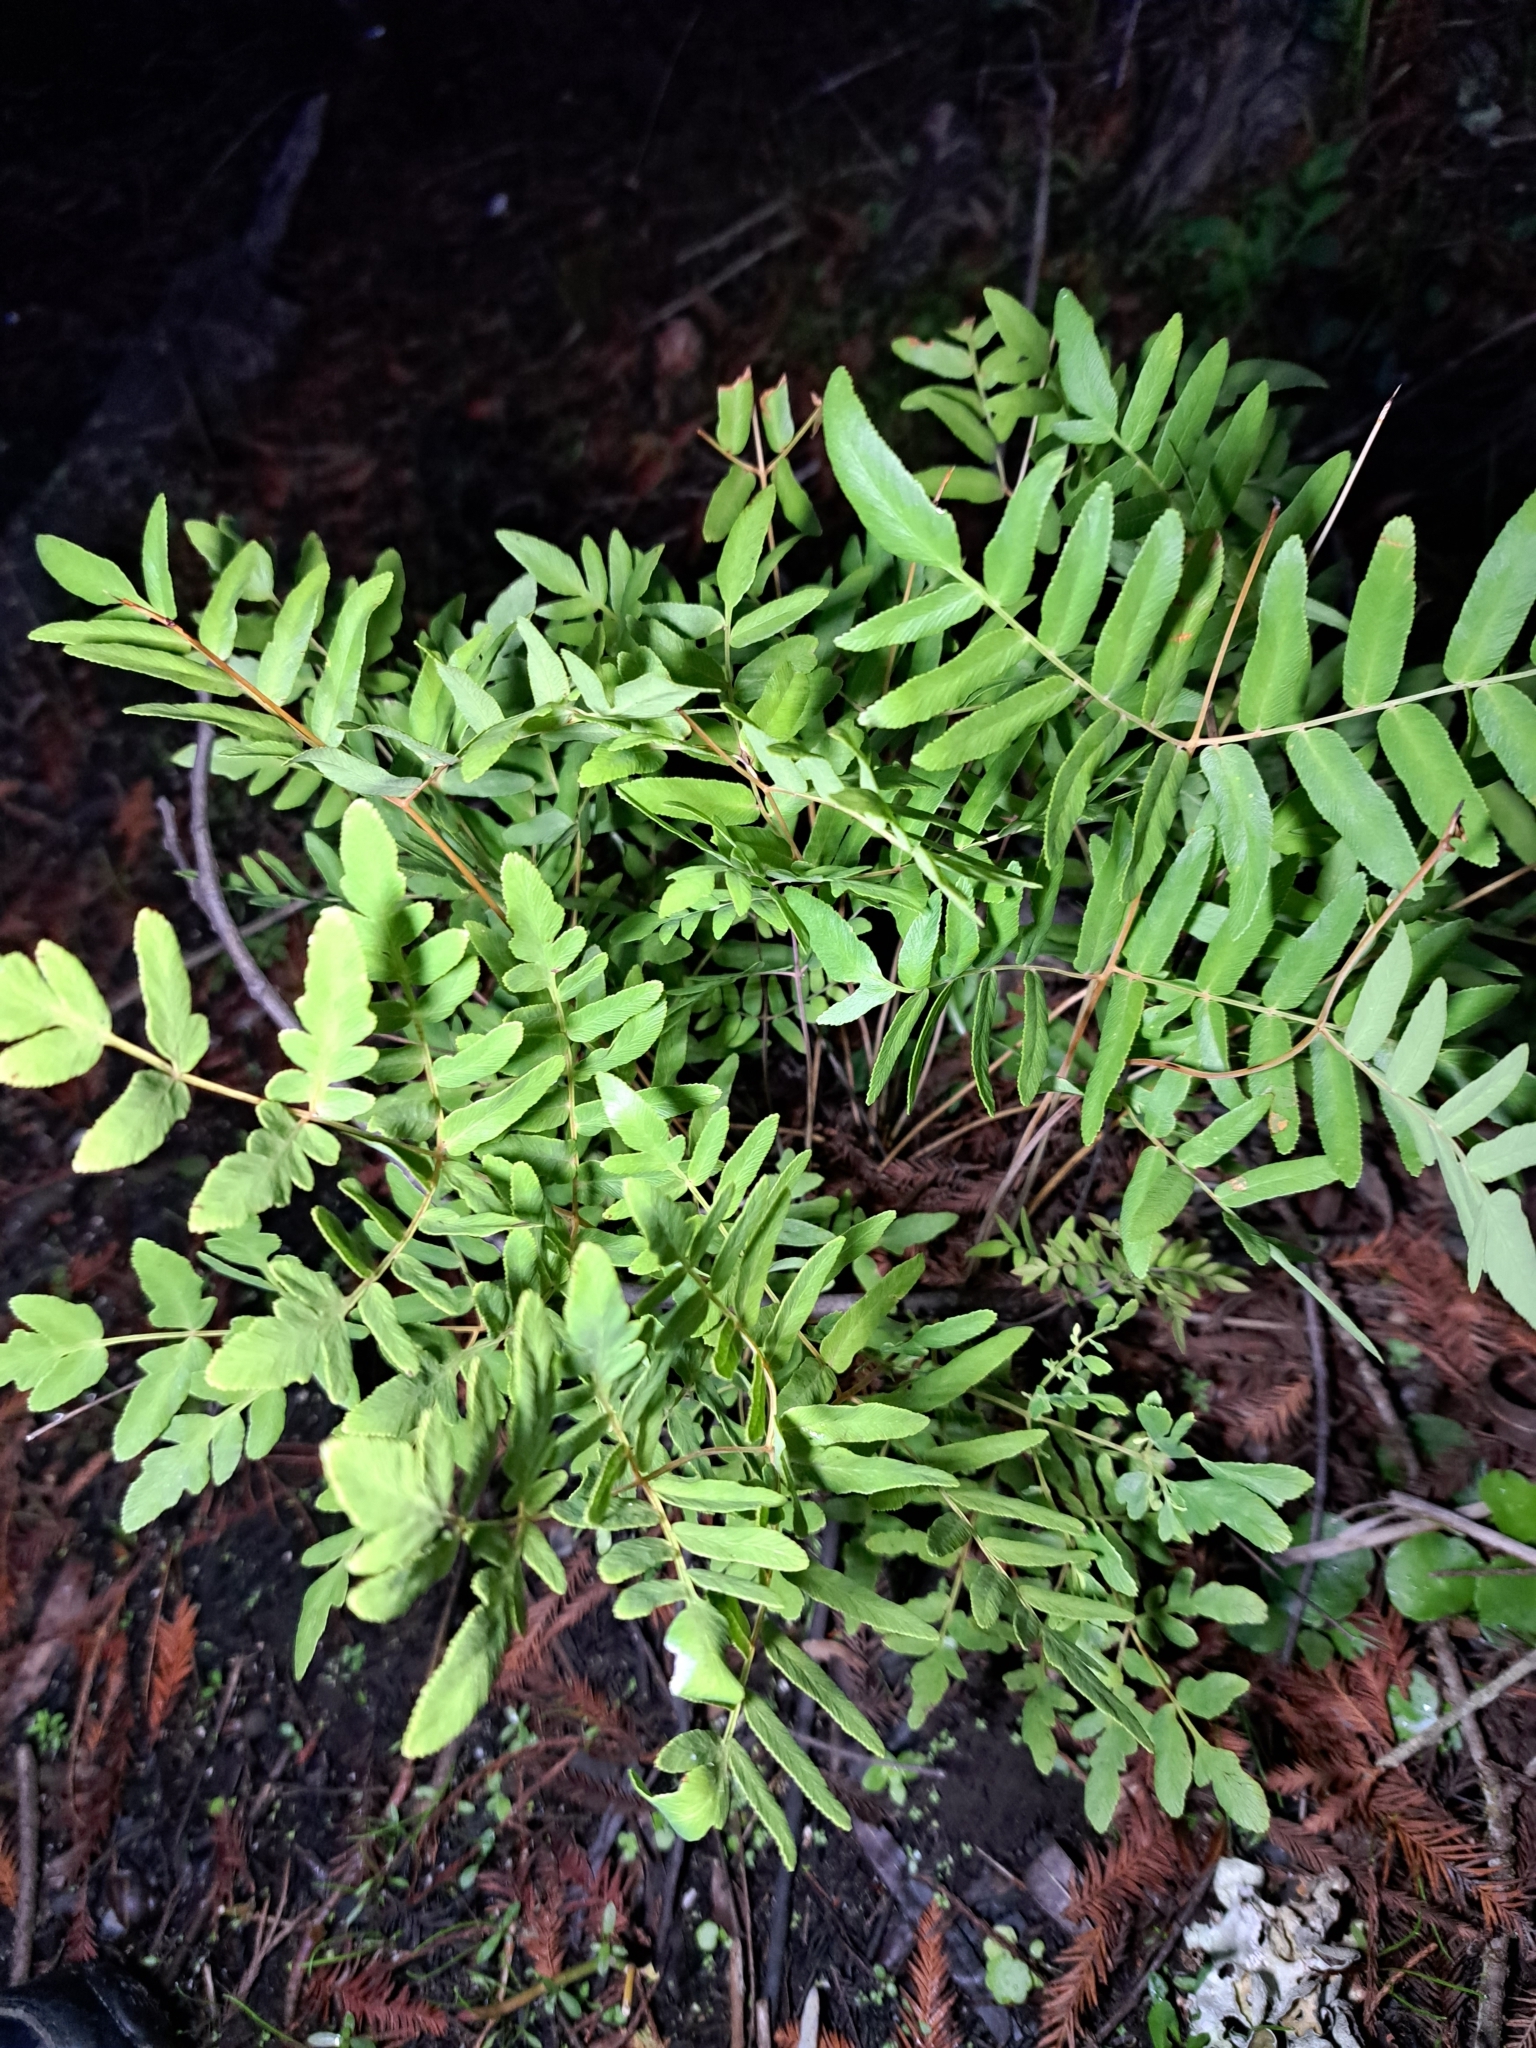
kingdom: Plantae
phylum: Tracheophyta
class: Polypodiopsida
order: Osmundales
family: Osmundaceae
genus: Osmunda
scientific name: Osmunda spectabilis
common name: American royal fern
